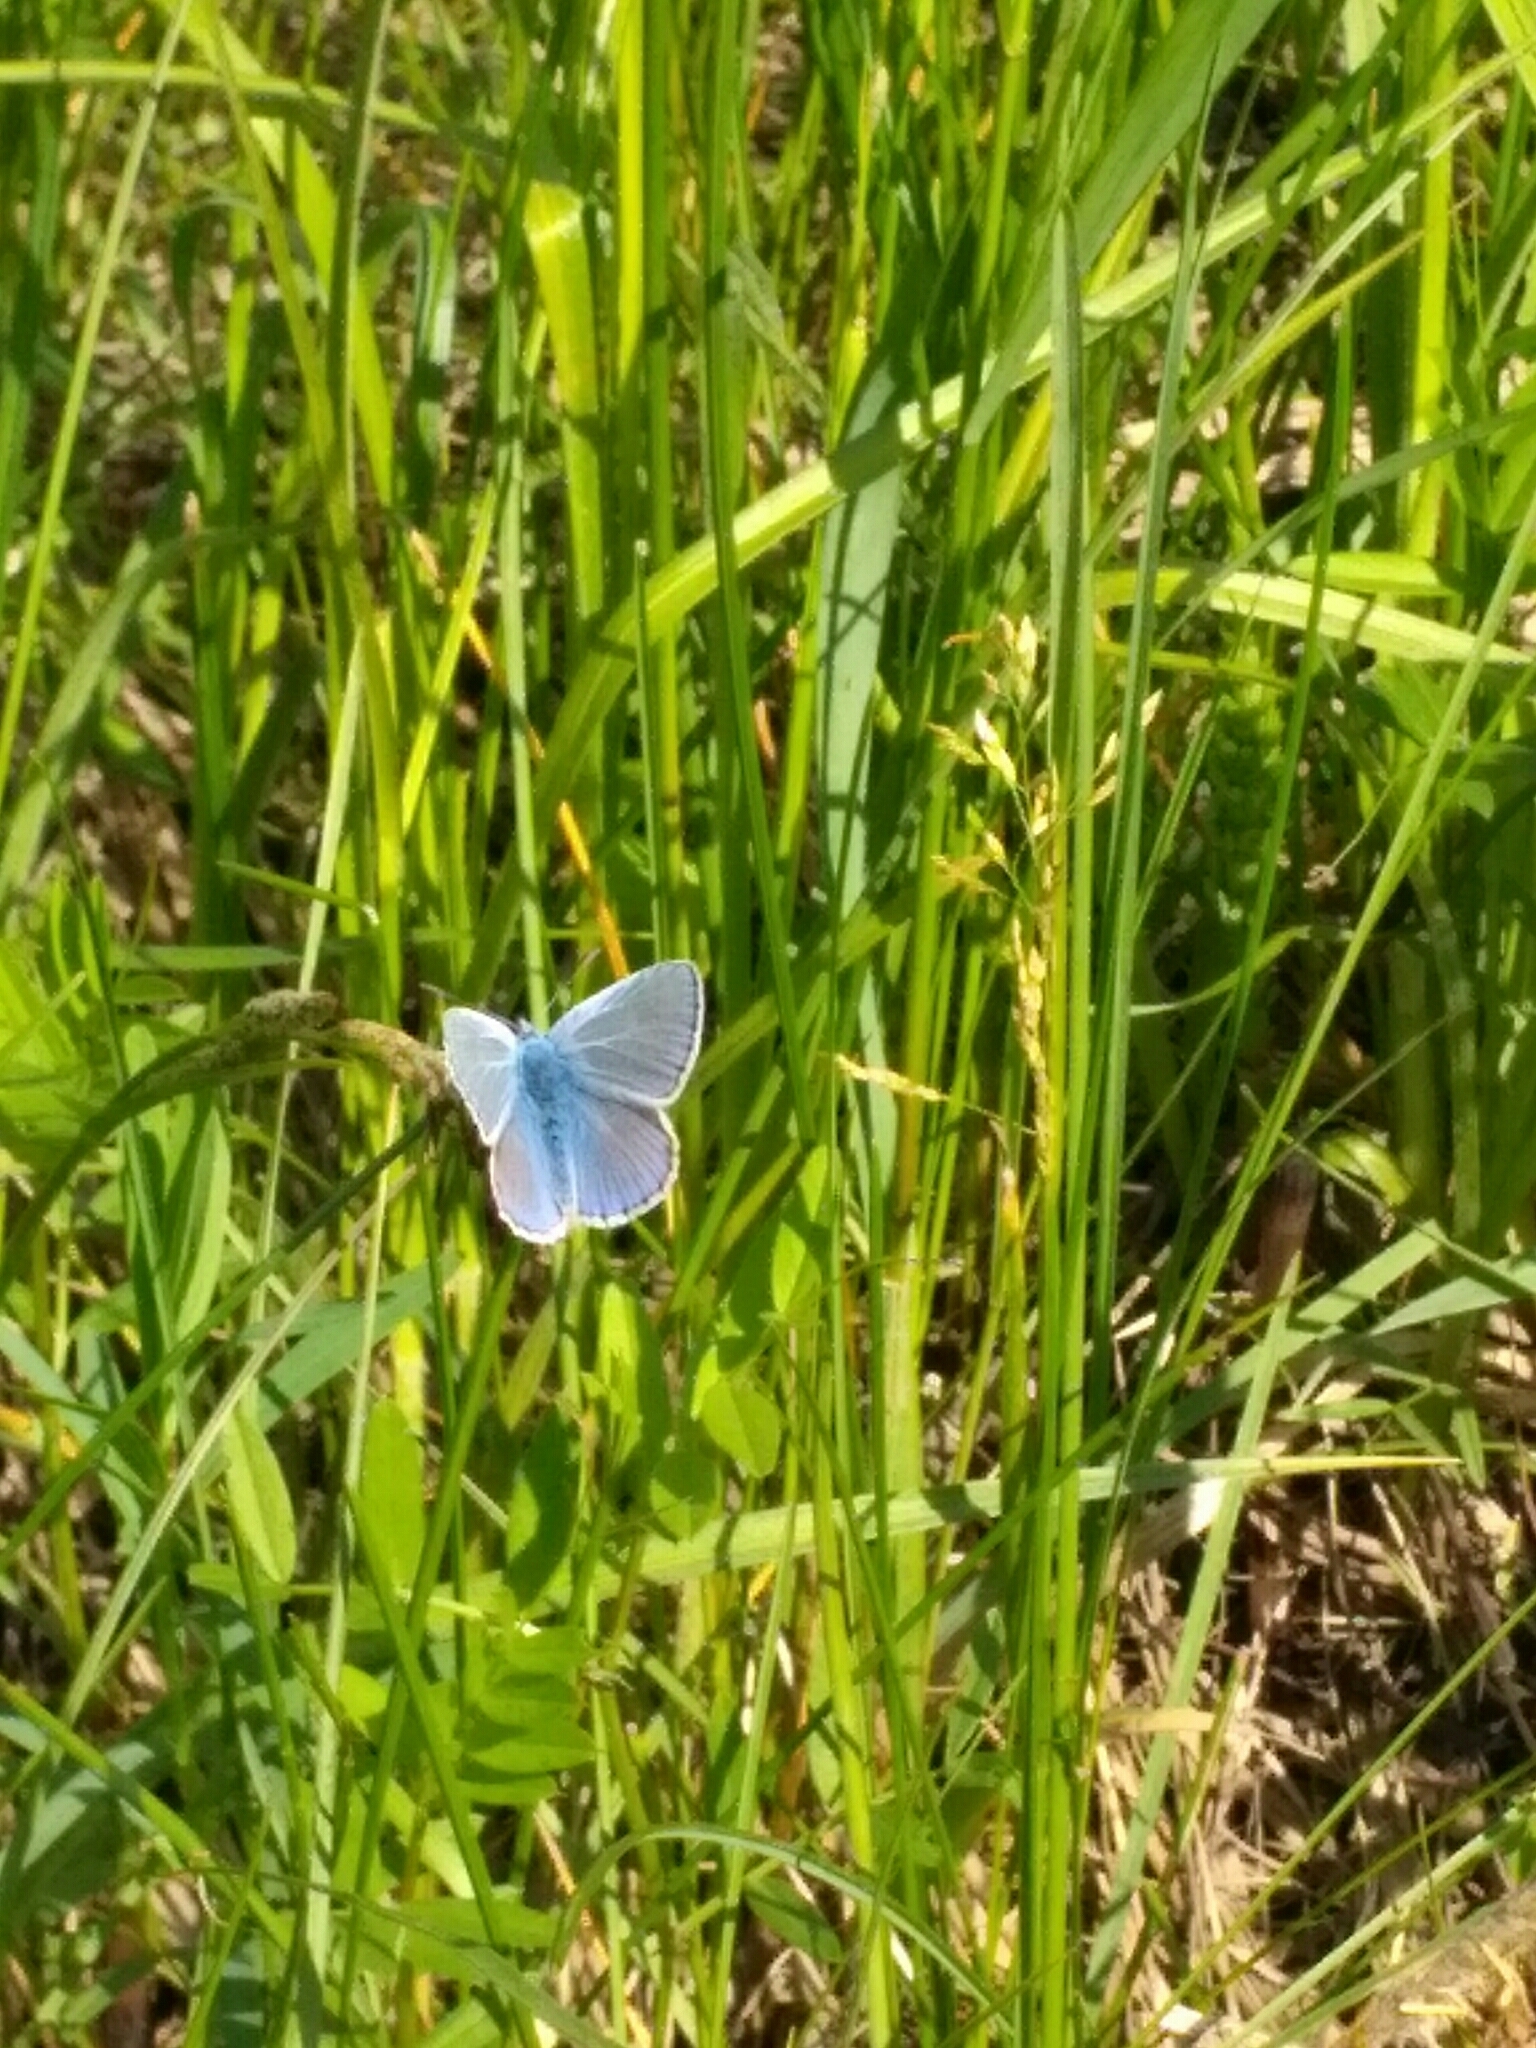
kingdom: Animalia
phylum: Arthropoda
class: Insecta
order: Lepidoptera
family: Lycaenidae
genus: Polyommatus
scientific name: Polyommatus icarus
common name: Common blue
